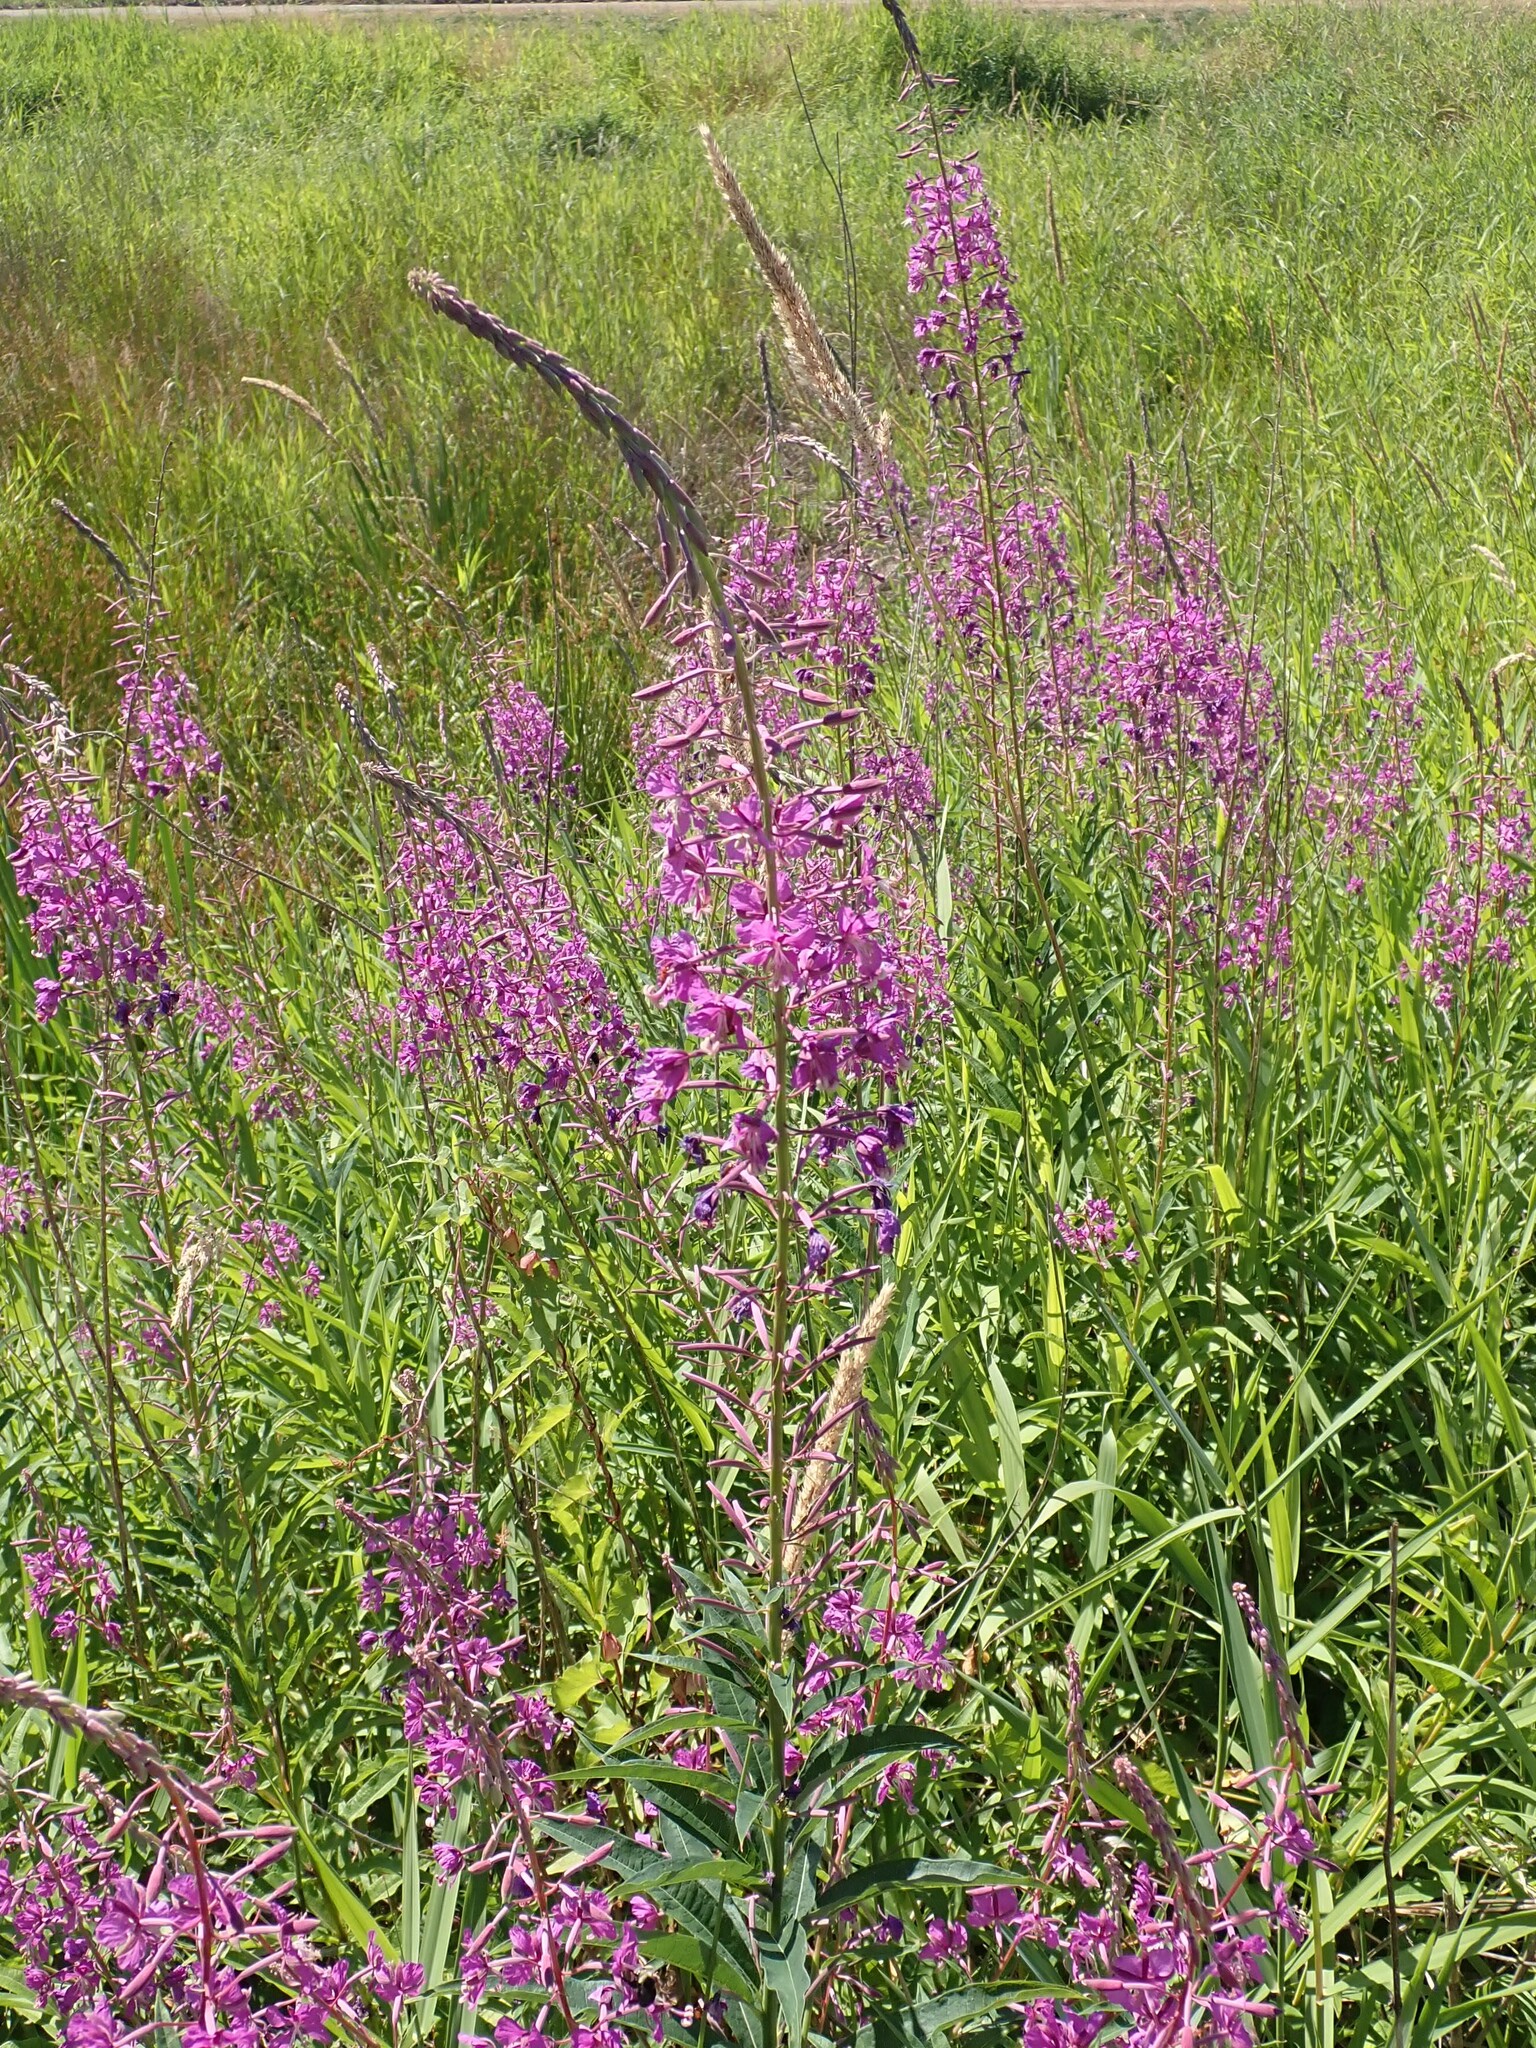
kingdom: Plantae
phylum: Tracheophyta
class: Magnoliopsida
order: Myrtales
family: Onagraceae
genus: Chamaenerion
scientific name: Chamaenerion angustifolium
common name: Fireweed
